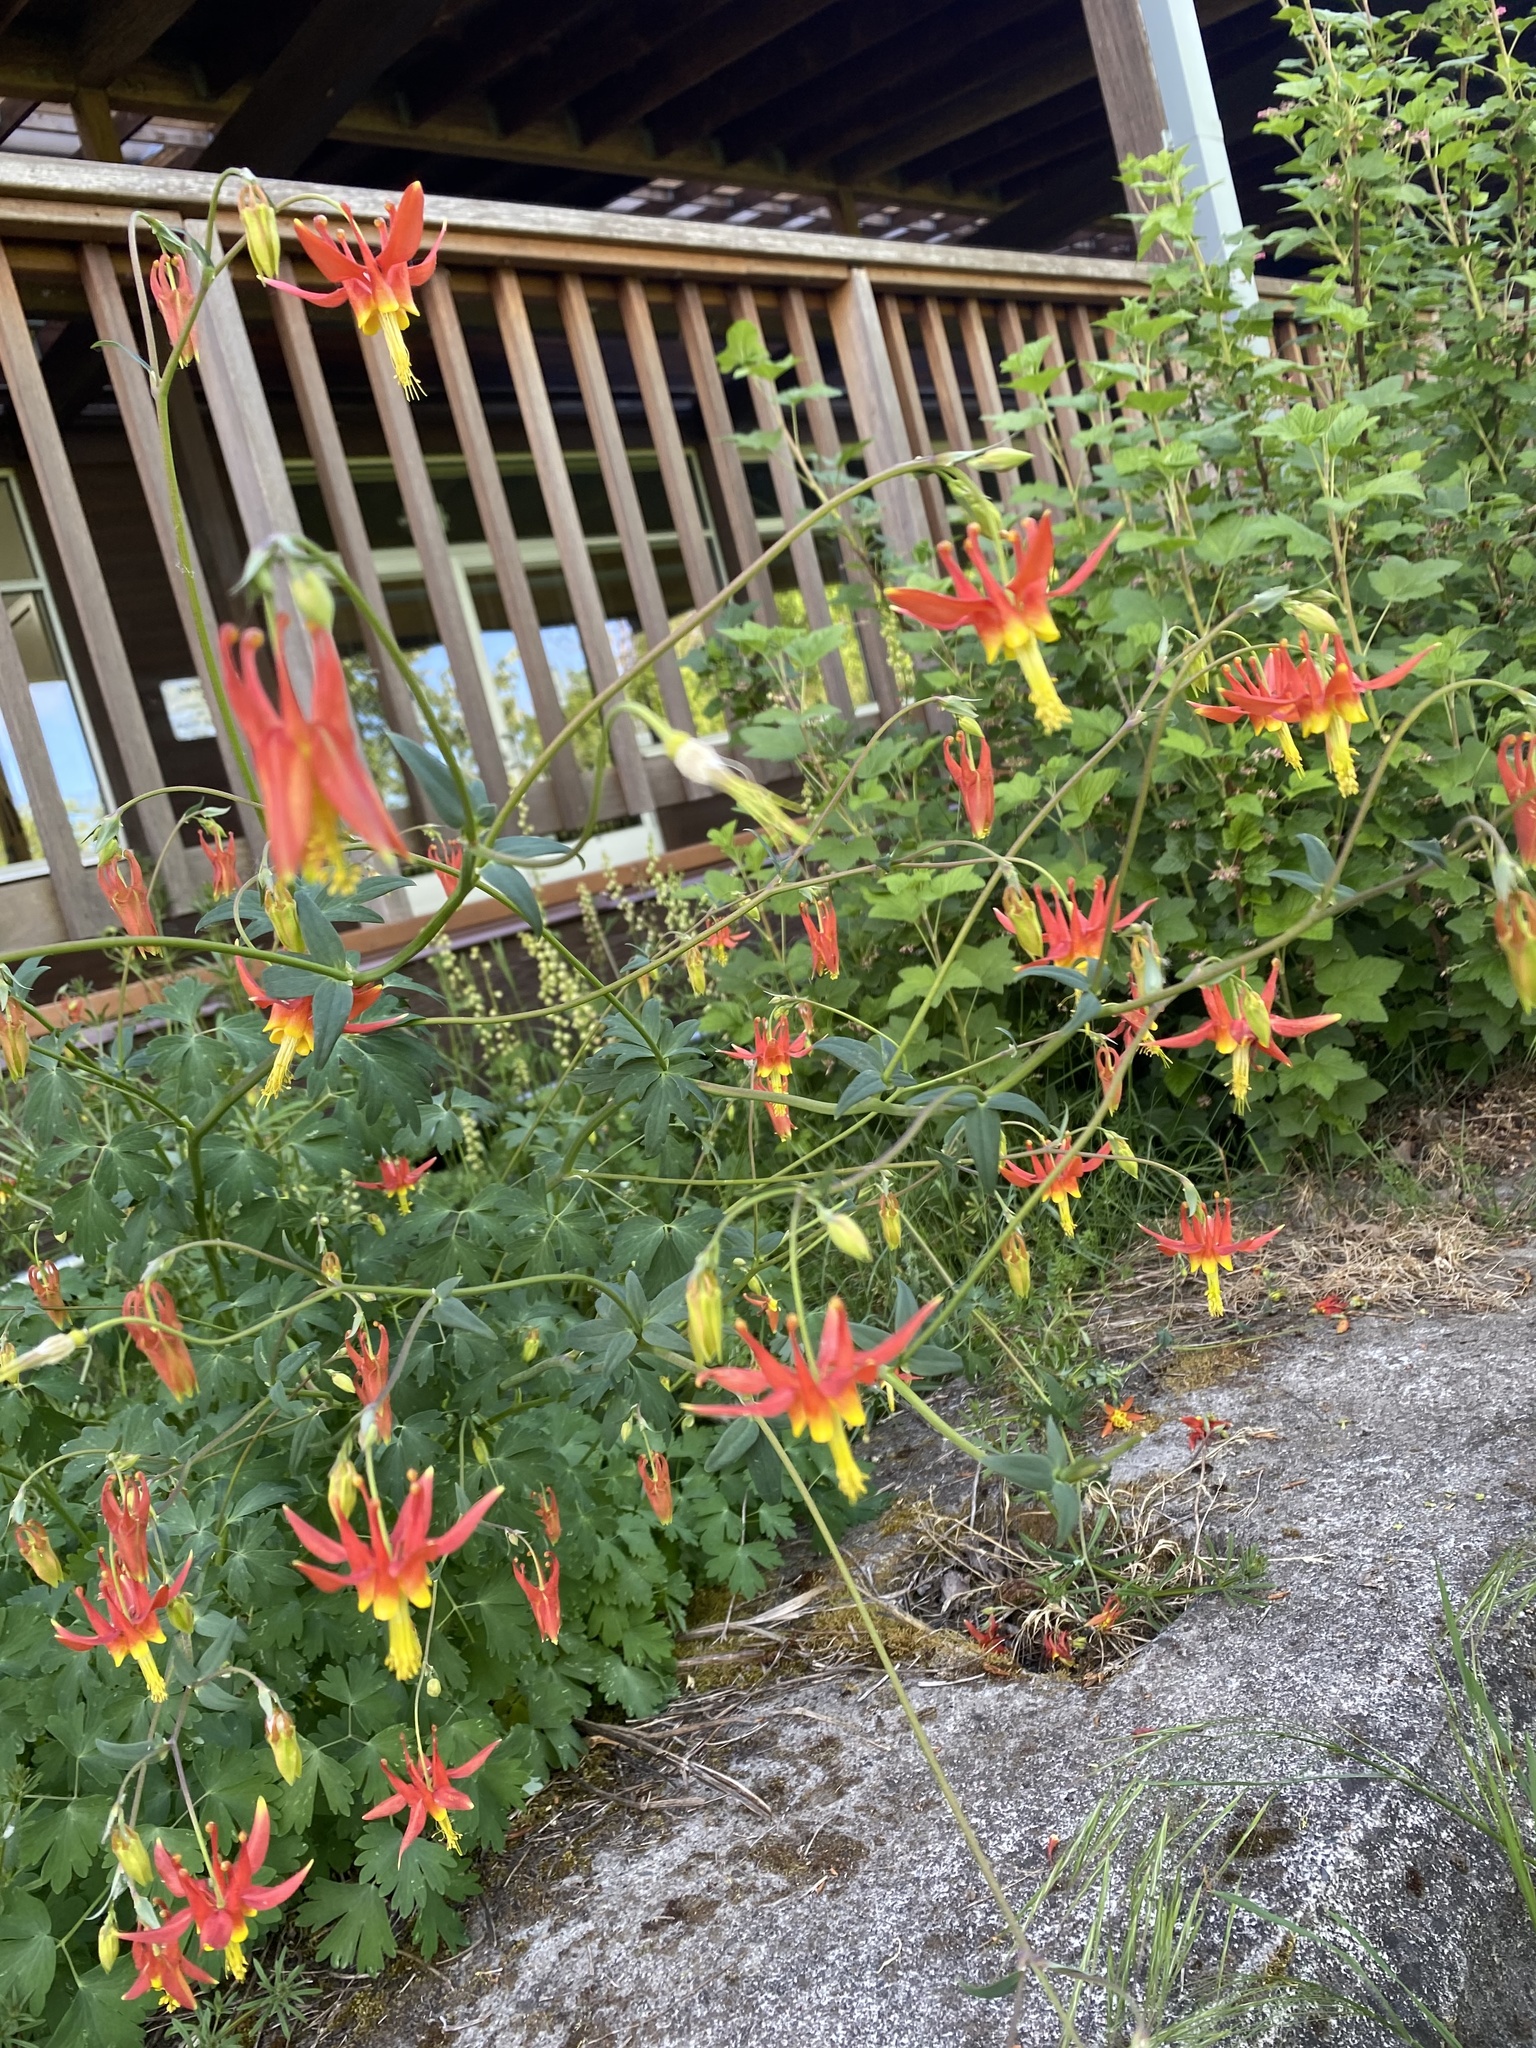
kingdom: Plantae
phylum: Tracheophyta
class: Magnoliopsida
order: Ranunculales
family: Ranunculaceae
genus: Aquilegia
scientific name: Aquilegia formosa
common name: Sitka columbine
